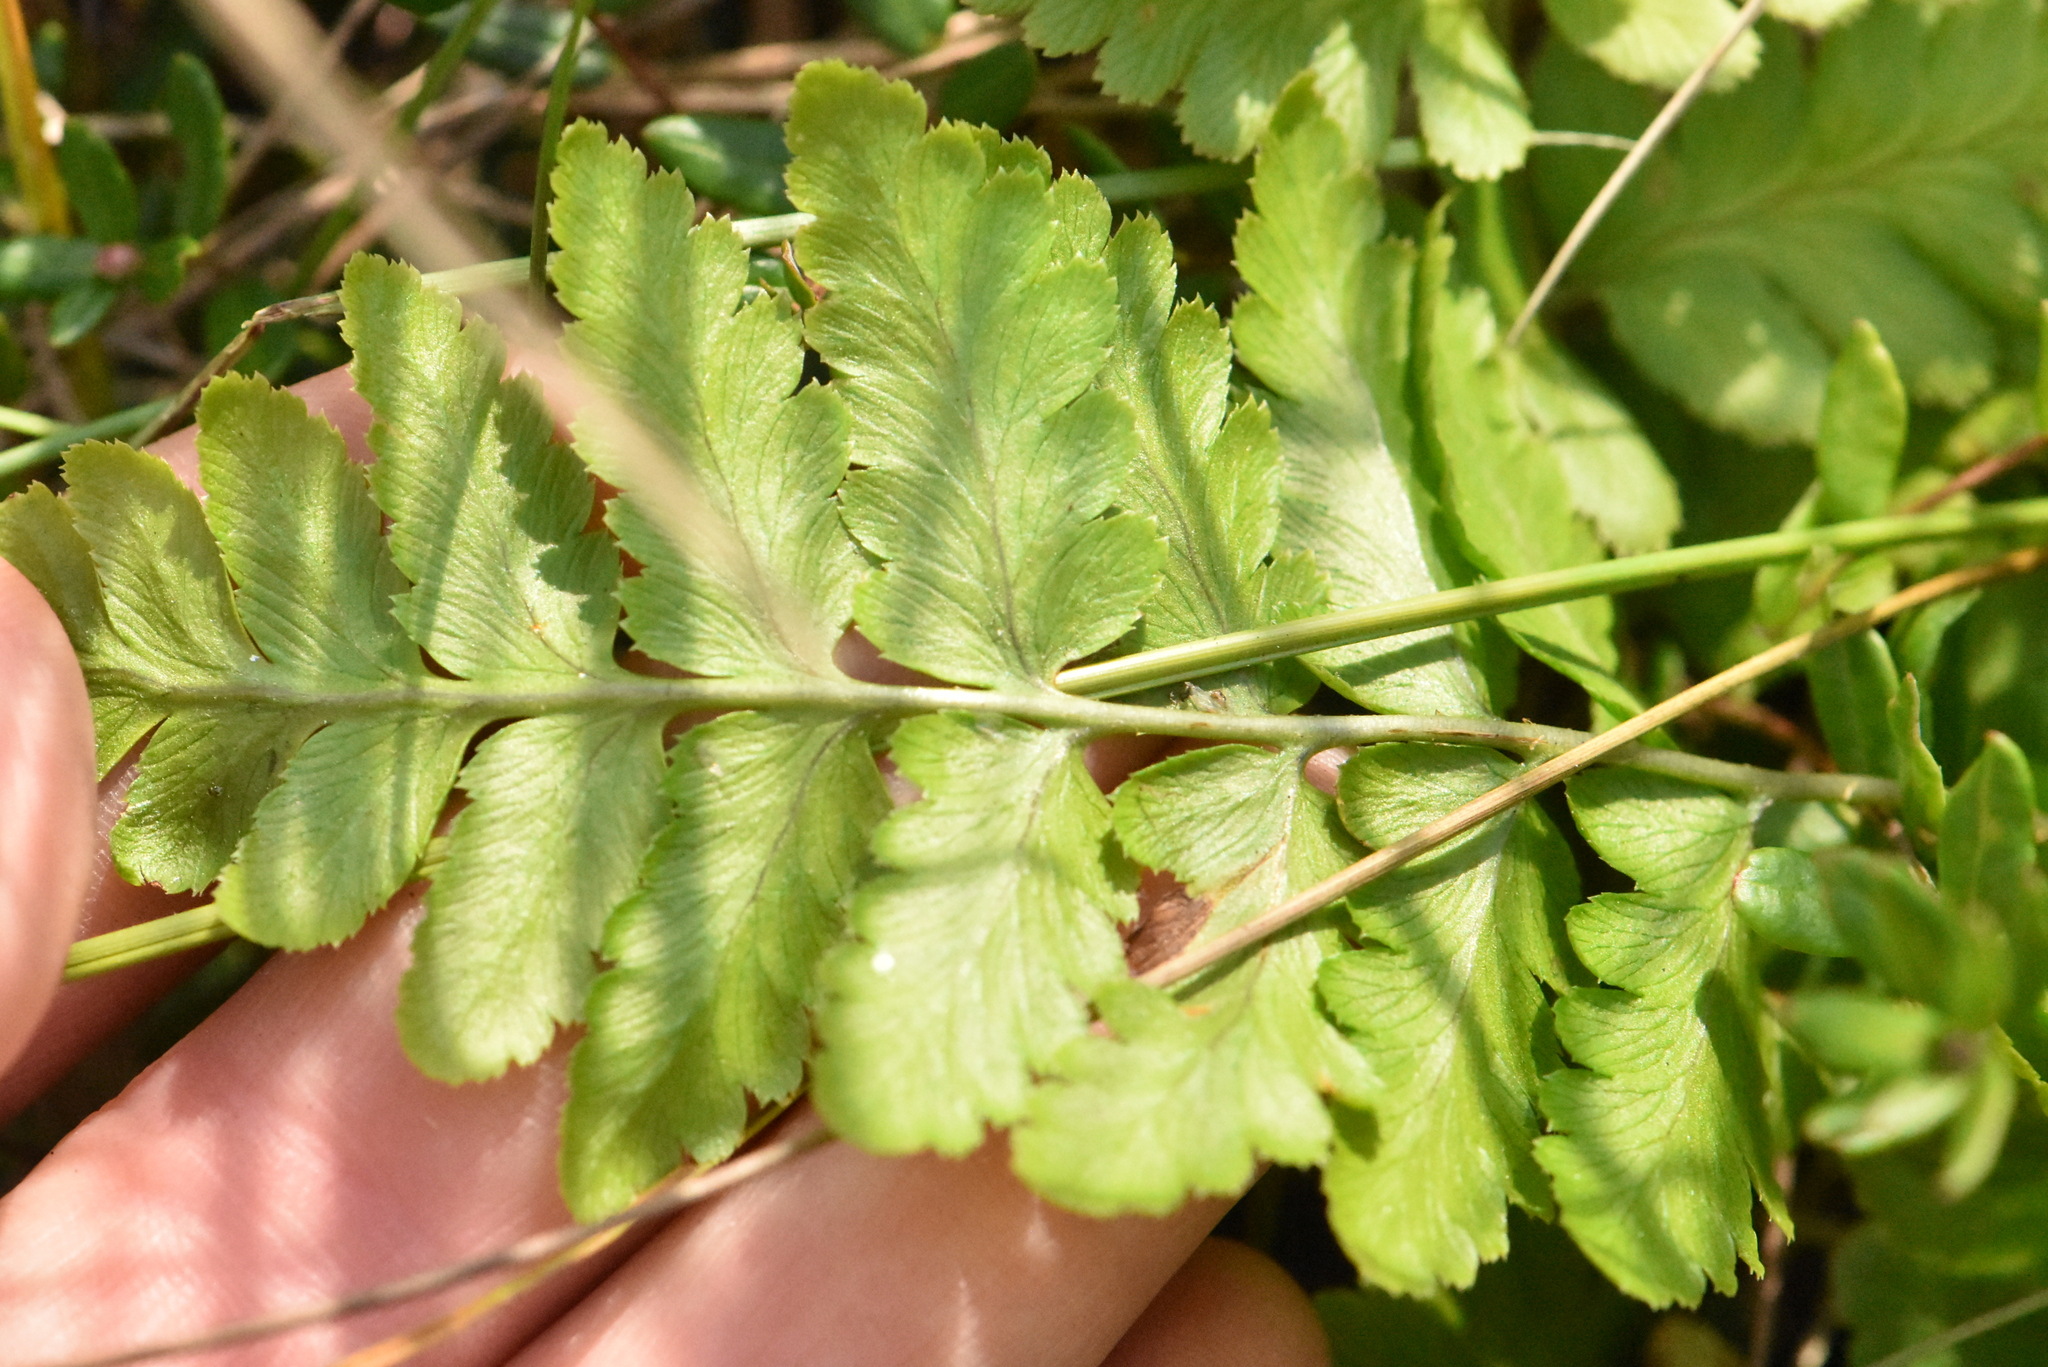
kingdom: Plantae
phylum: Tracheophyta
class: Polypodiopsida
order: Polypodiales
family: Dryopteridaceae
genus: Dryopteris
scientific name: Dryopteris cristata
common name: Crested wood fern
